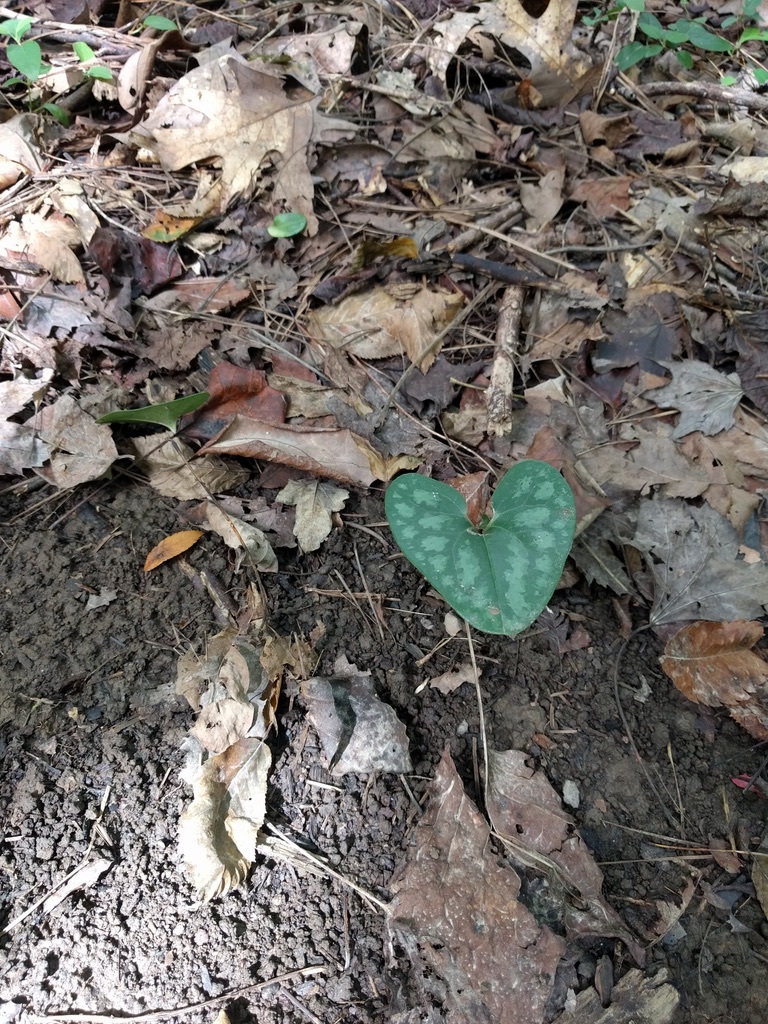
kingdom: Plantae
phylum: Tracheophyta
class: Magnoliopsida
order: Piperales
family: Aristolochiaceae
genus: Hexastylis
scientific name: Hexastylis arifolia
